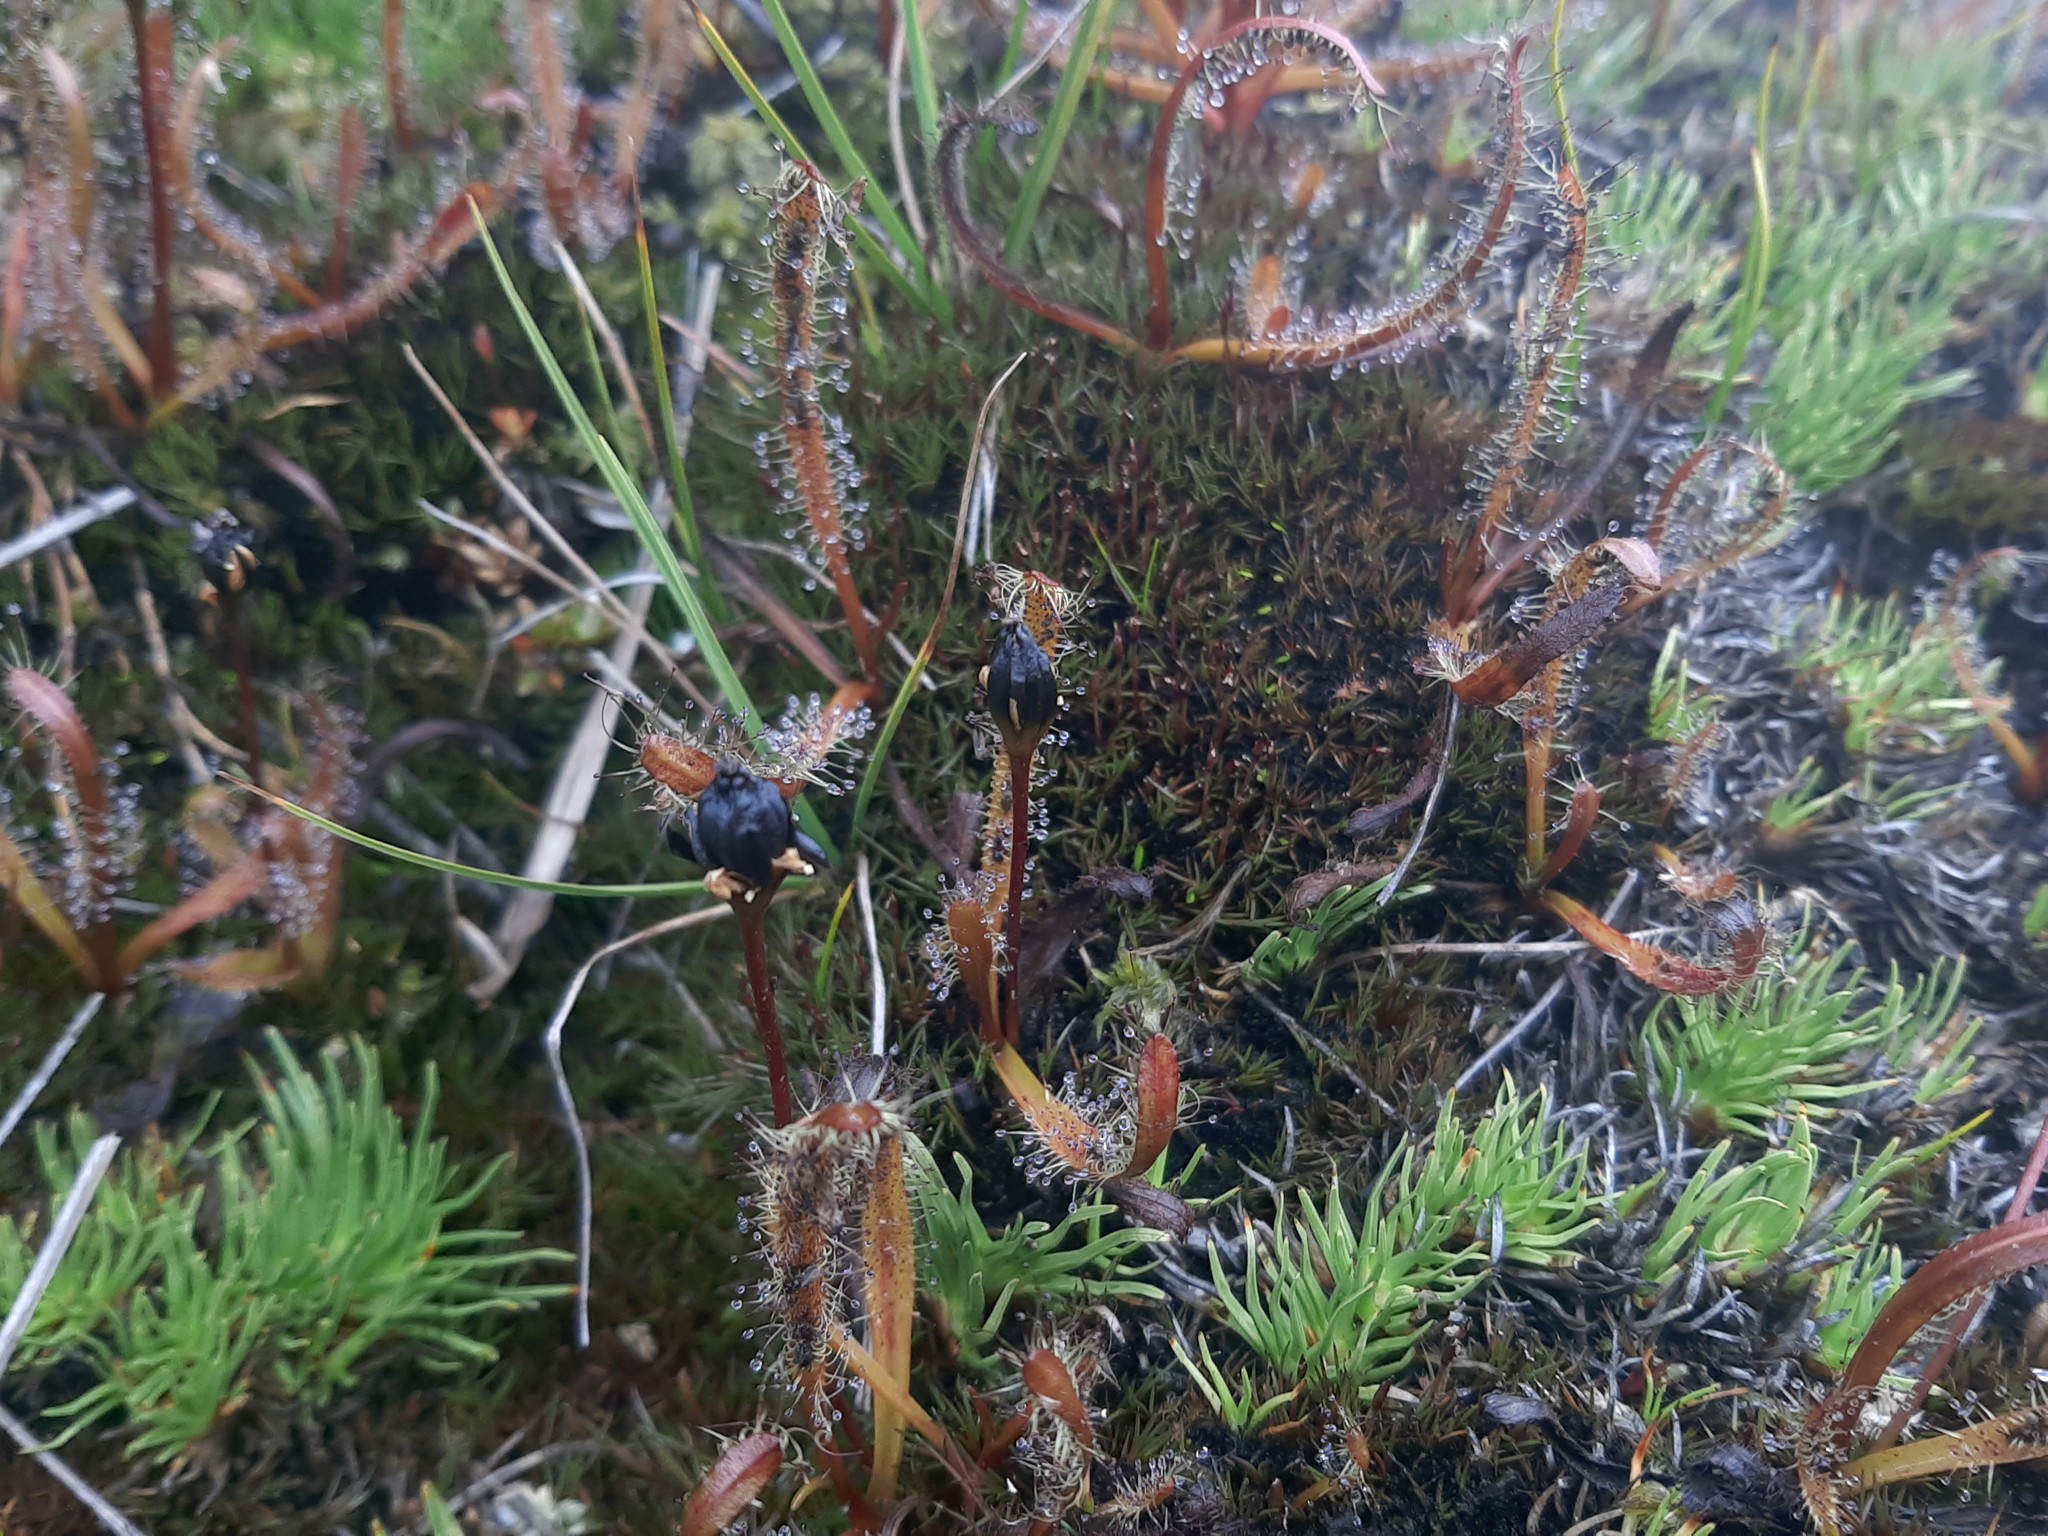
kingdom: Plantae
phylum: Tracheophyta
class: Magnoliopsida
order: Caryophyllales
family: Droseraceae
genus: Drosera
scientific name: Drosera arcturi
